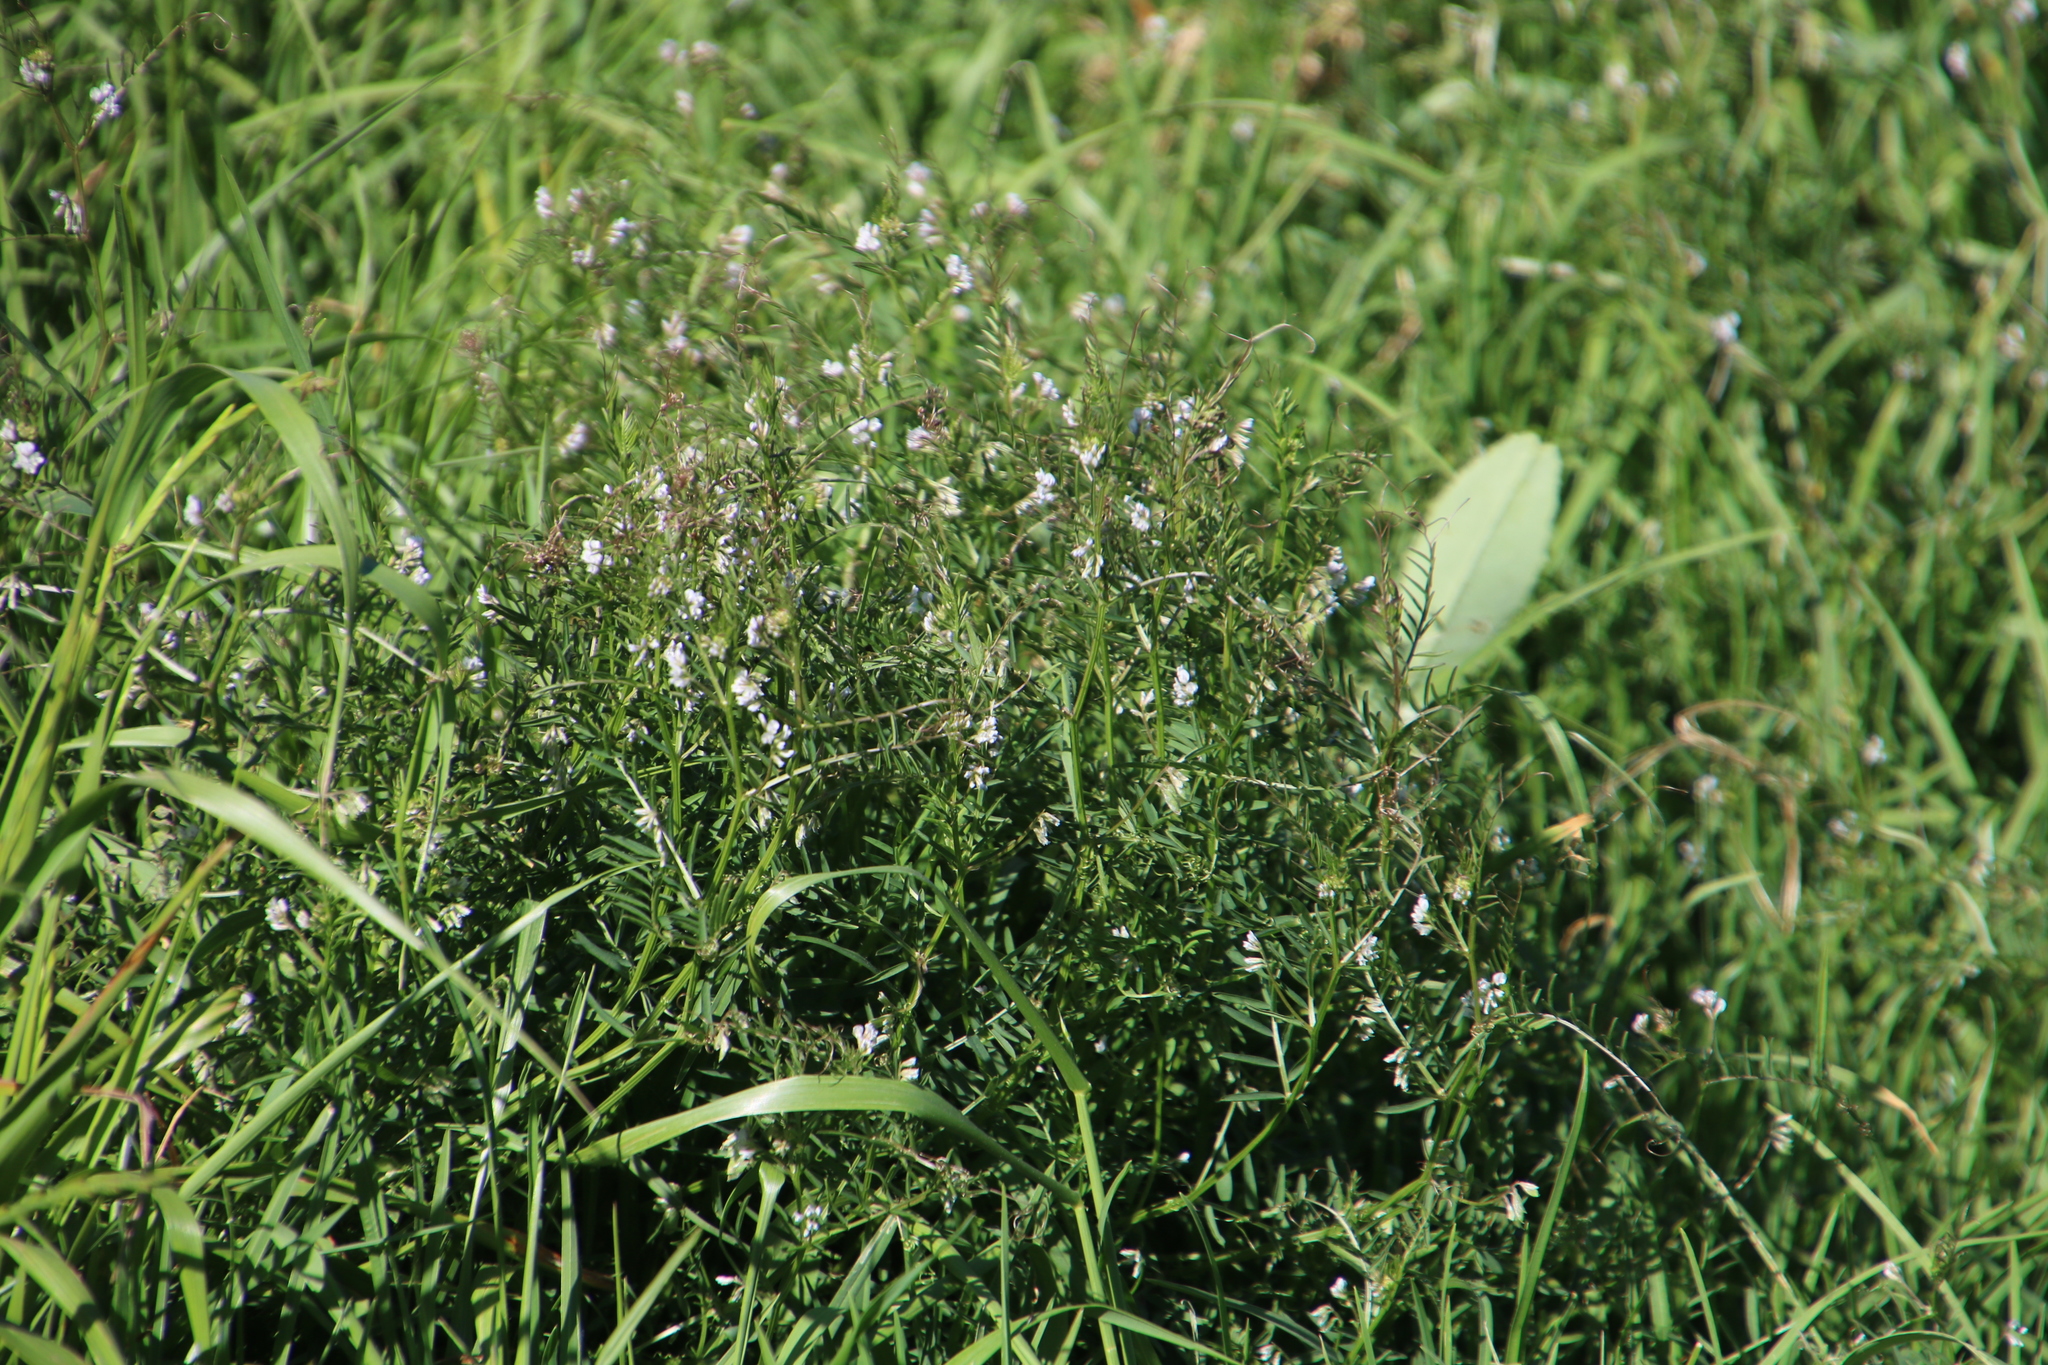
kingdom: Plantae
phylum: Tracheophyta
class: Magnoliopsida
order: Fabales
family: Fabaceae
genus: Vicia
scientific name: Vicia hirsuta
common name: Tiny vetch
